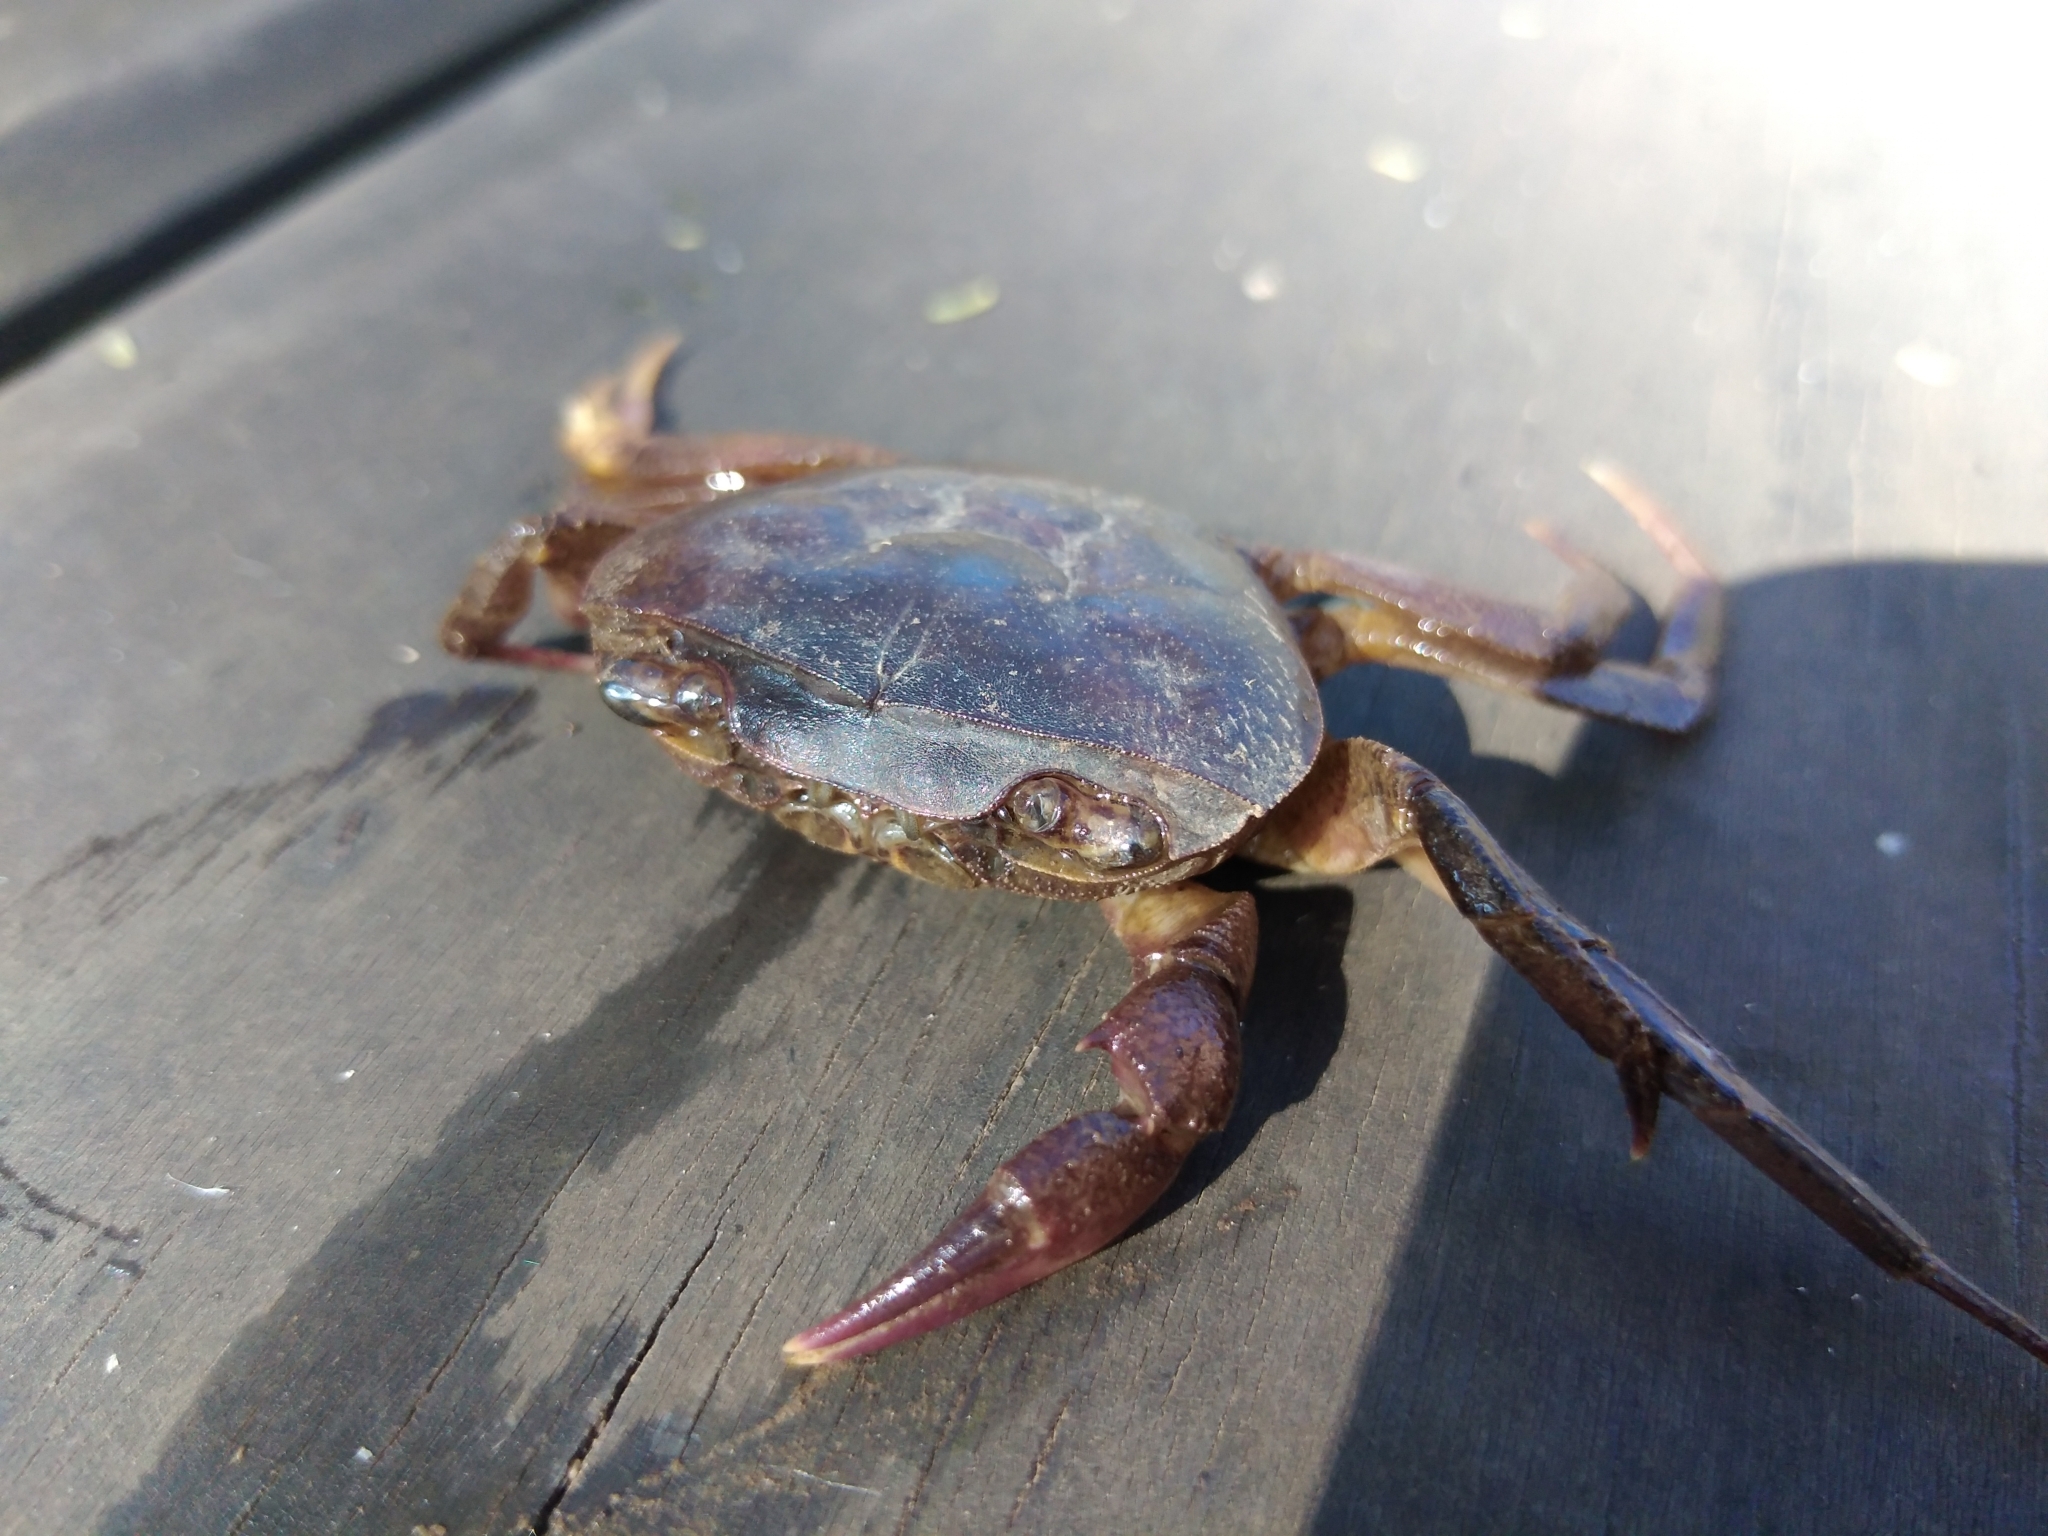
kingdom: Animalia
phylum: Arthropoda
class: Malacostraca
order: Decapoda
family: Potamonautidae
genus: Potamonautes
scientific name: Potamonautes sidneyi
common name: Natal river crab
